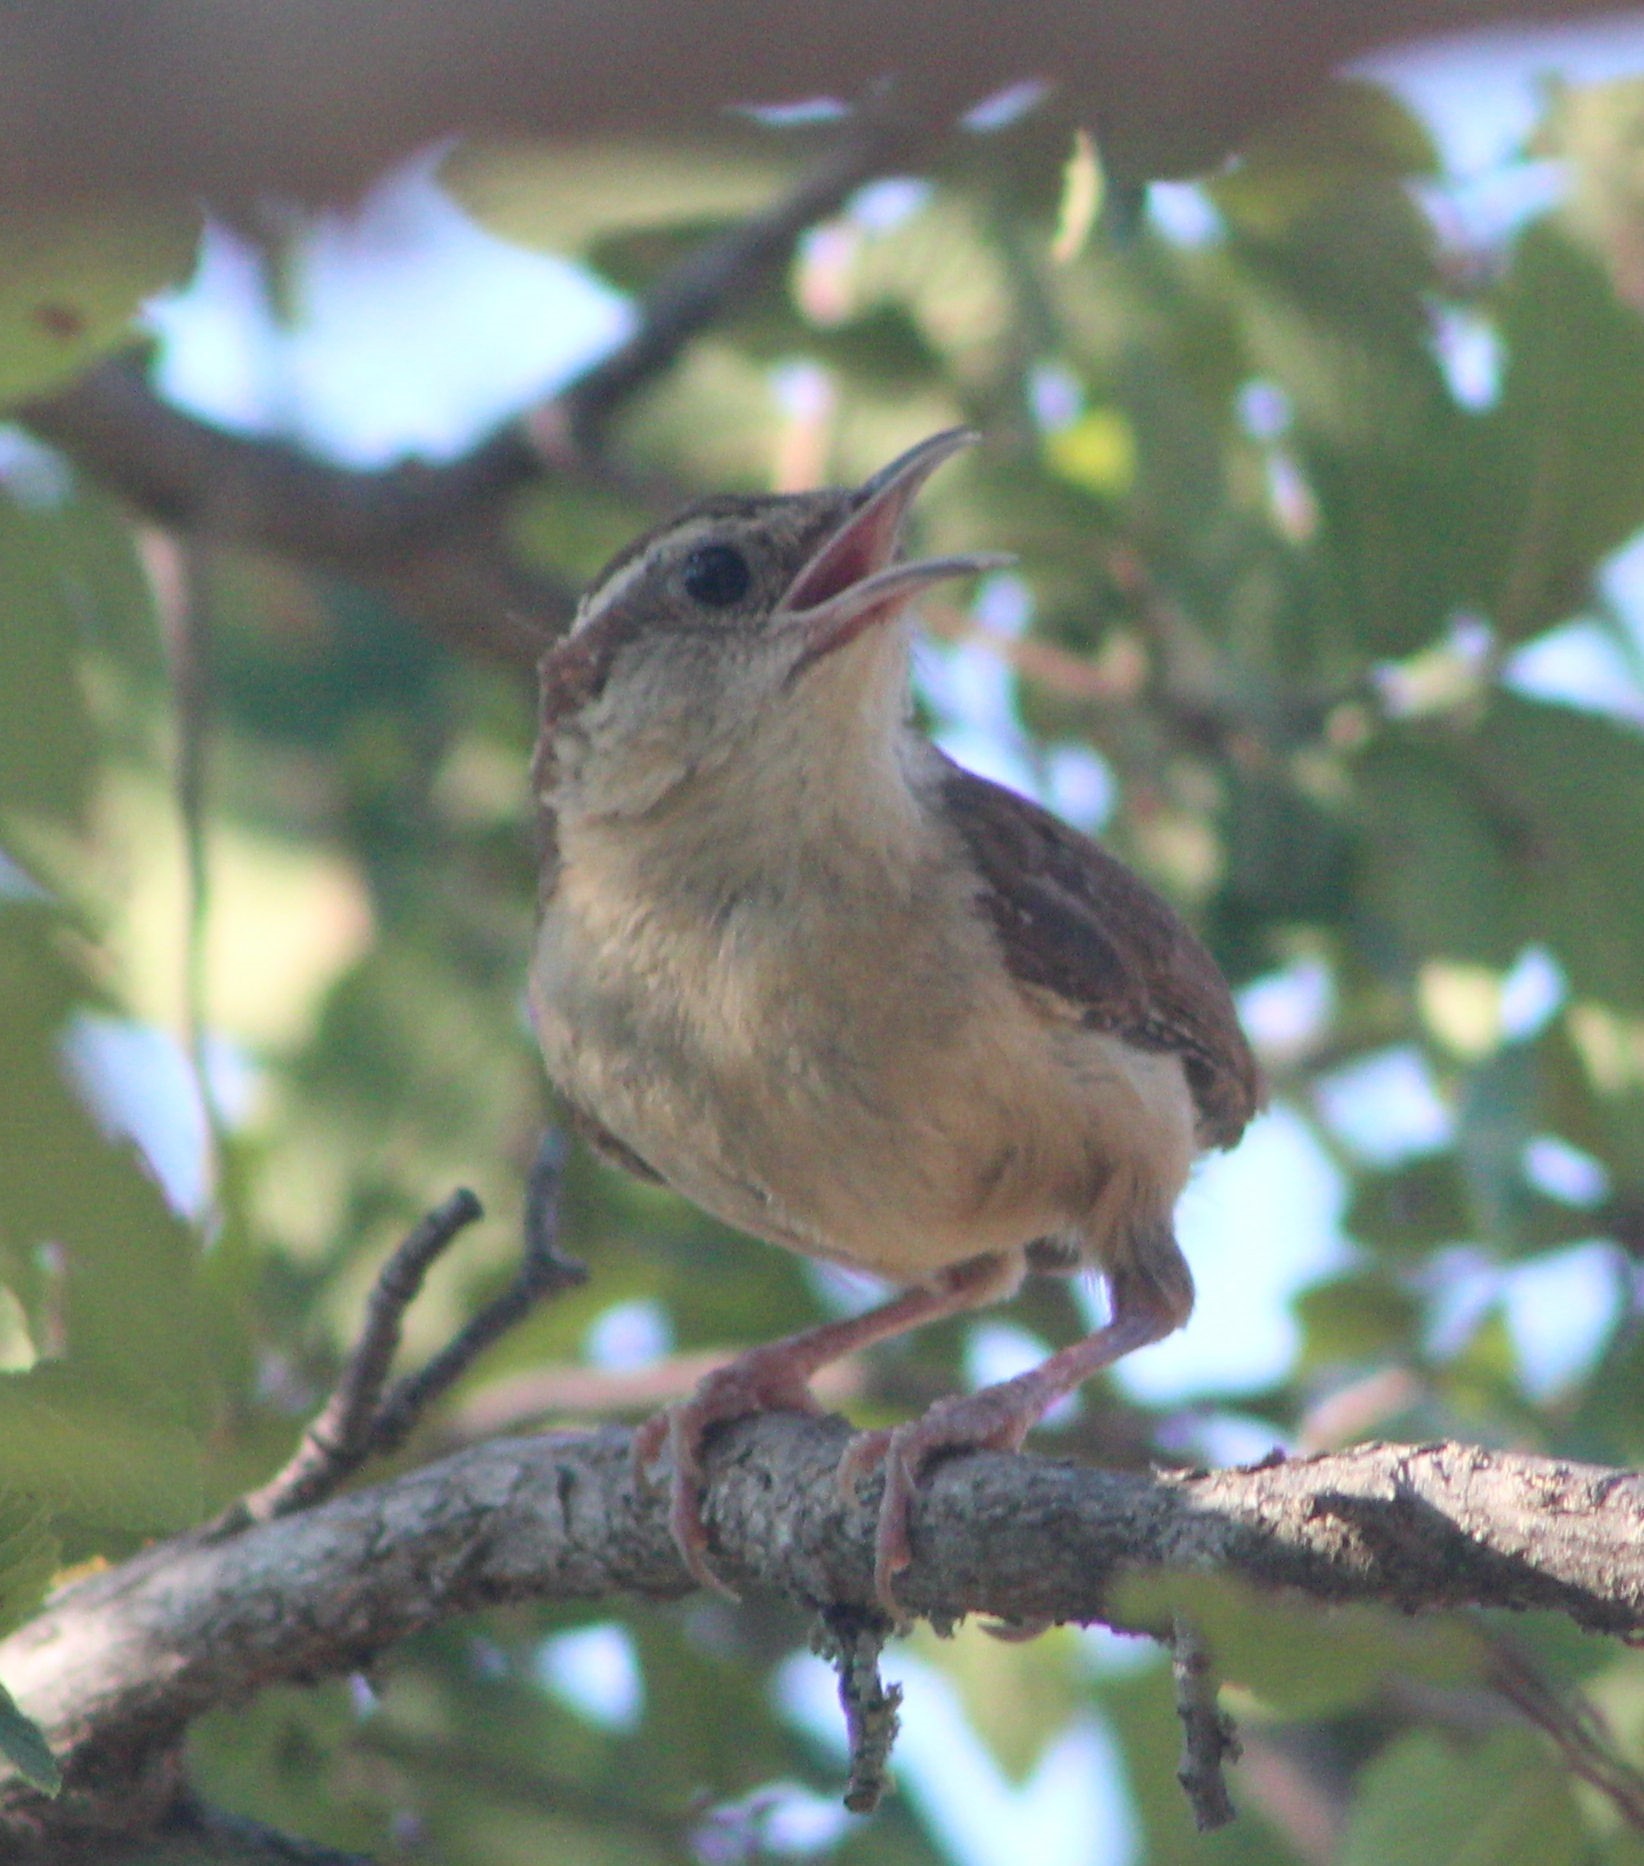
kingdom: Animalia
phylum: Chordata
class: Aves
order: Passeriformes
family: Troglodytidae
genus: Thryothorus
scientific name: Thryothorus ludovicianus
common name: Carolina wren
